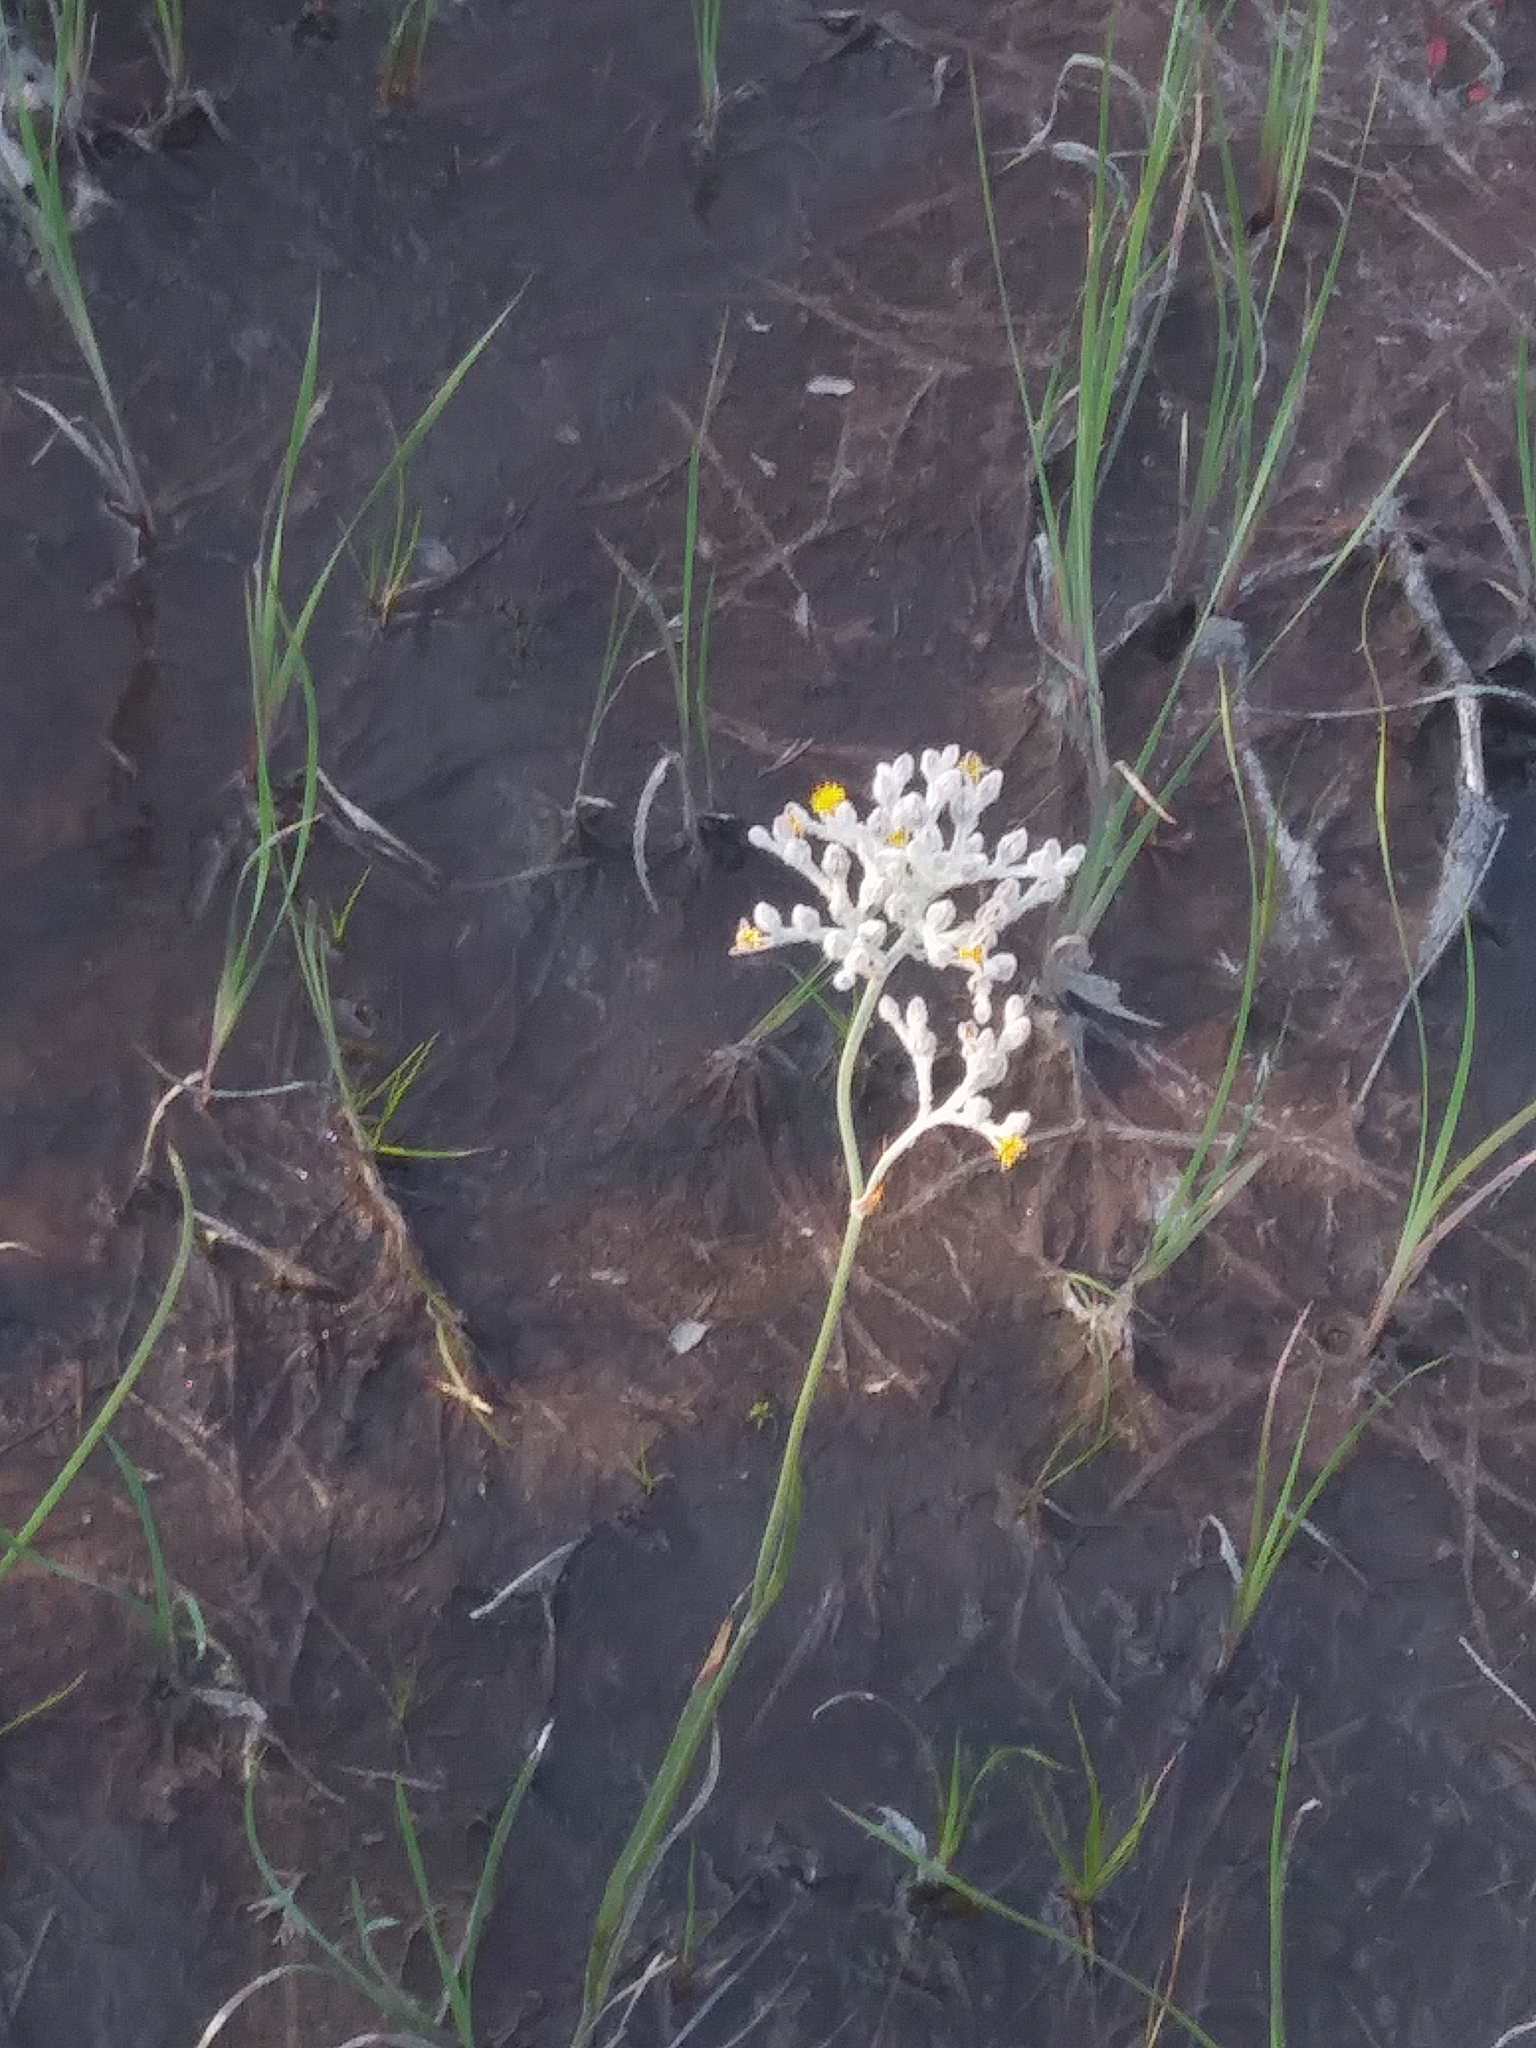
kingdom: Plantae
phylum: Tracheophyta
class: Liliopsida
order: Dioscoreales
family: Nartheciaceae
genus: Lophiola
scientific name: Lophiola aurea
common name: Golden-crest
